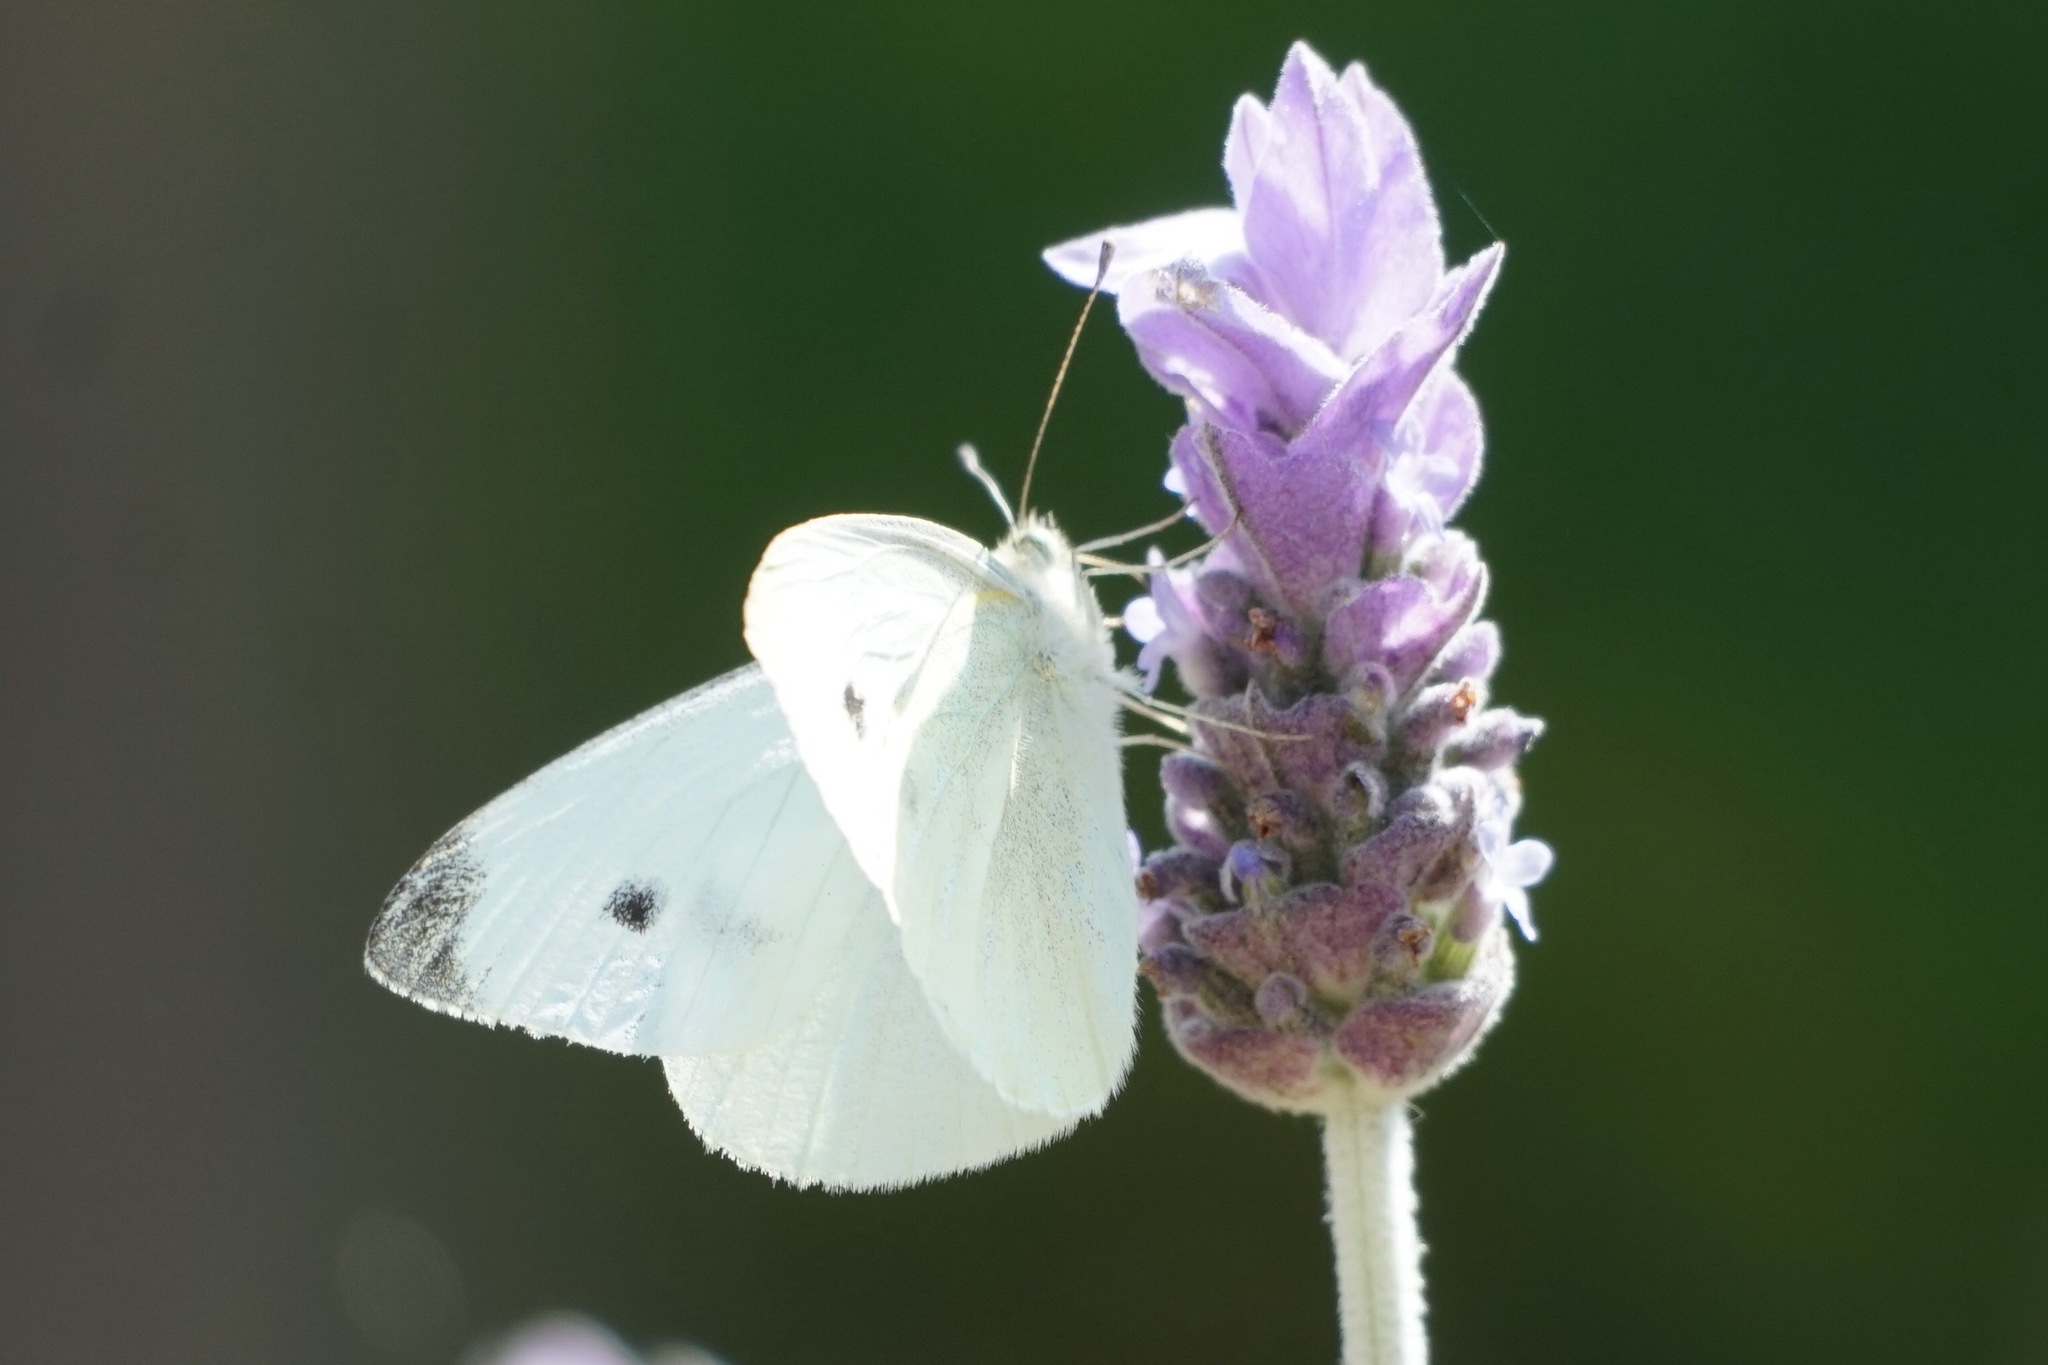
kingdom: Animalia
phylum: Arthropoda
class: Insecta
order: Lepidoptera
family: Pieridae
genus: Pieris
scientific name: Pieris rapae
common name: Small white
